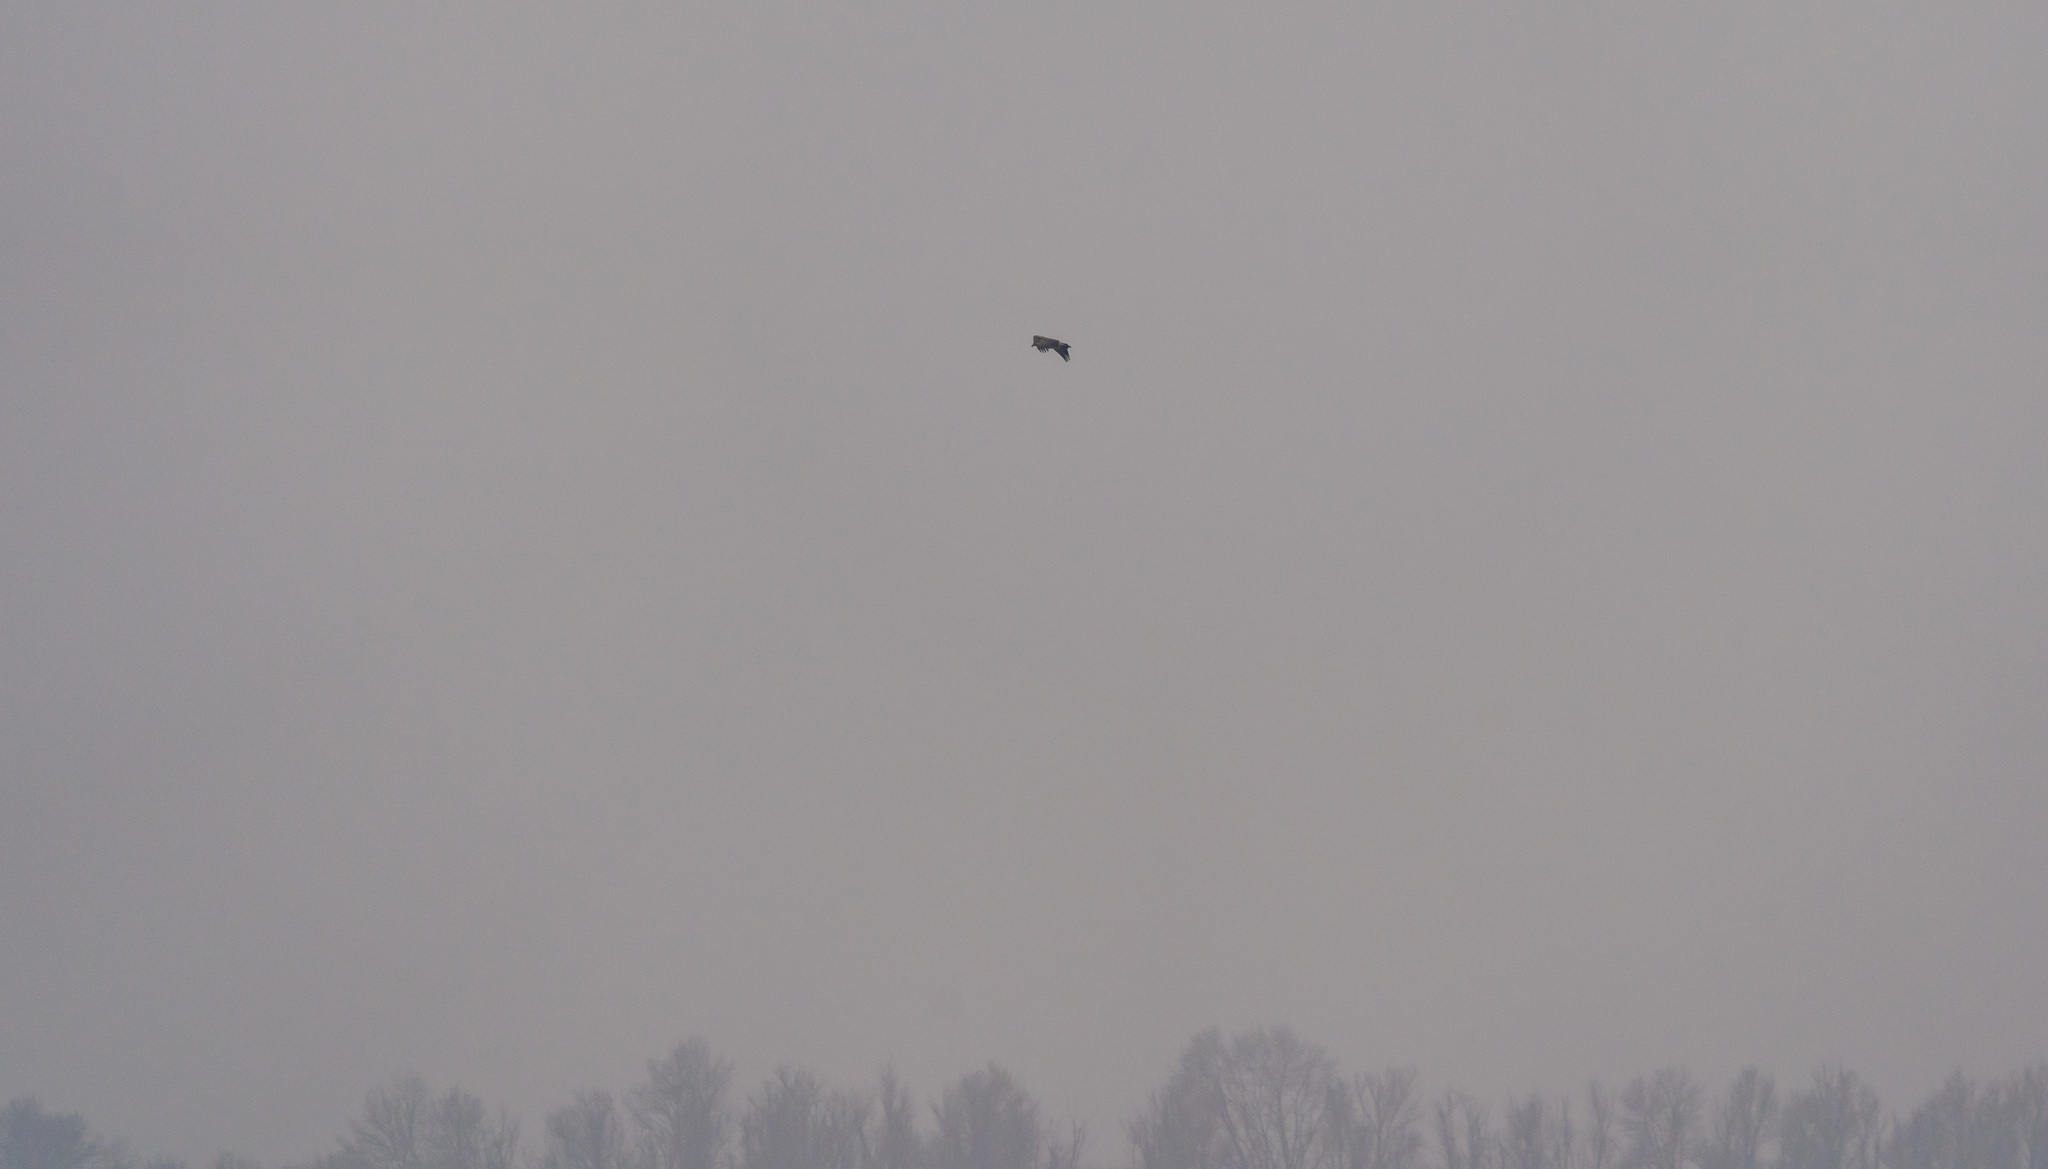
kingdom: Animalia
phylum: Chordata
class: Aves
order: Accipitriformes
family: Accipitridae
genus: Haliaeetus
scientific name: Haliaeetus albicilla
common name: White-tailed eagle
